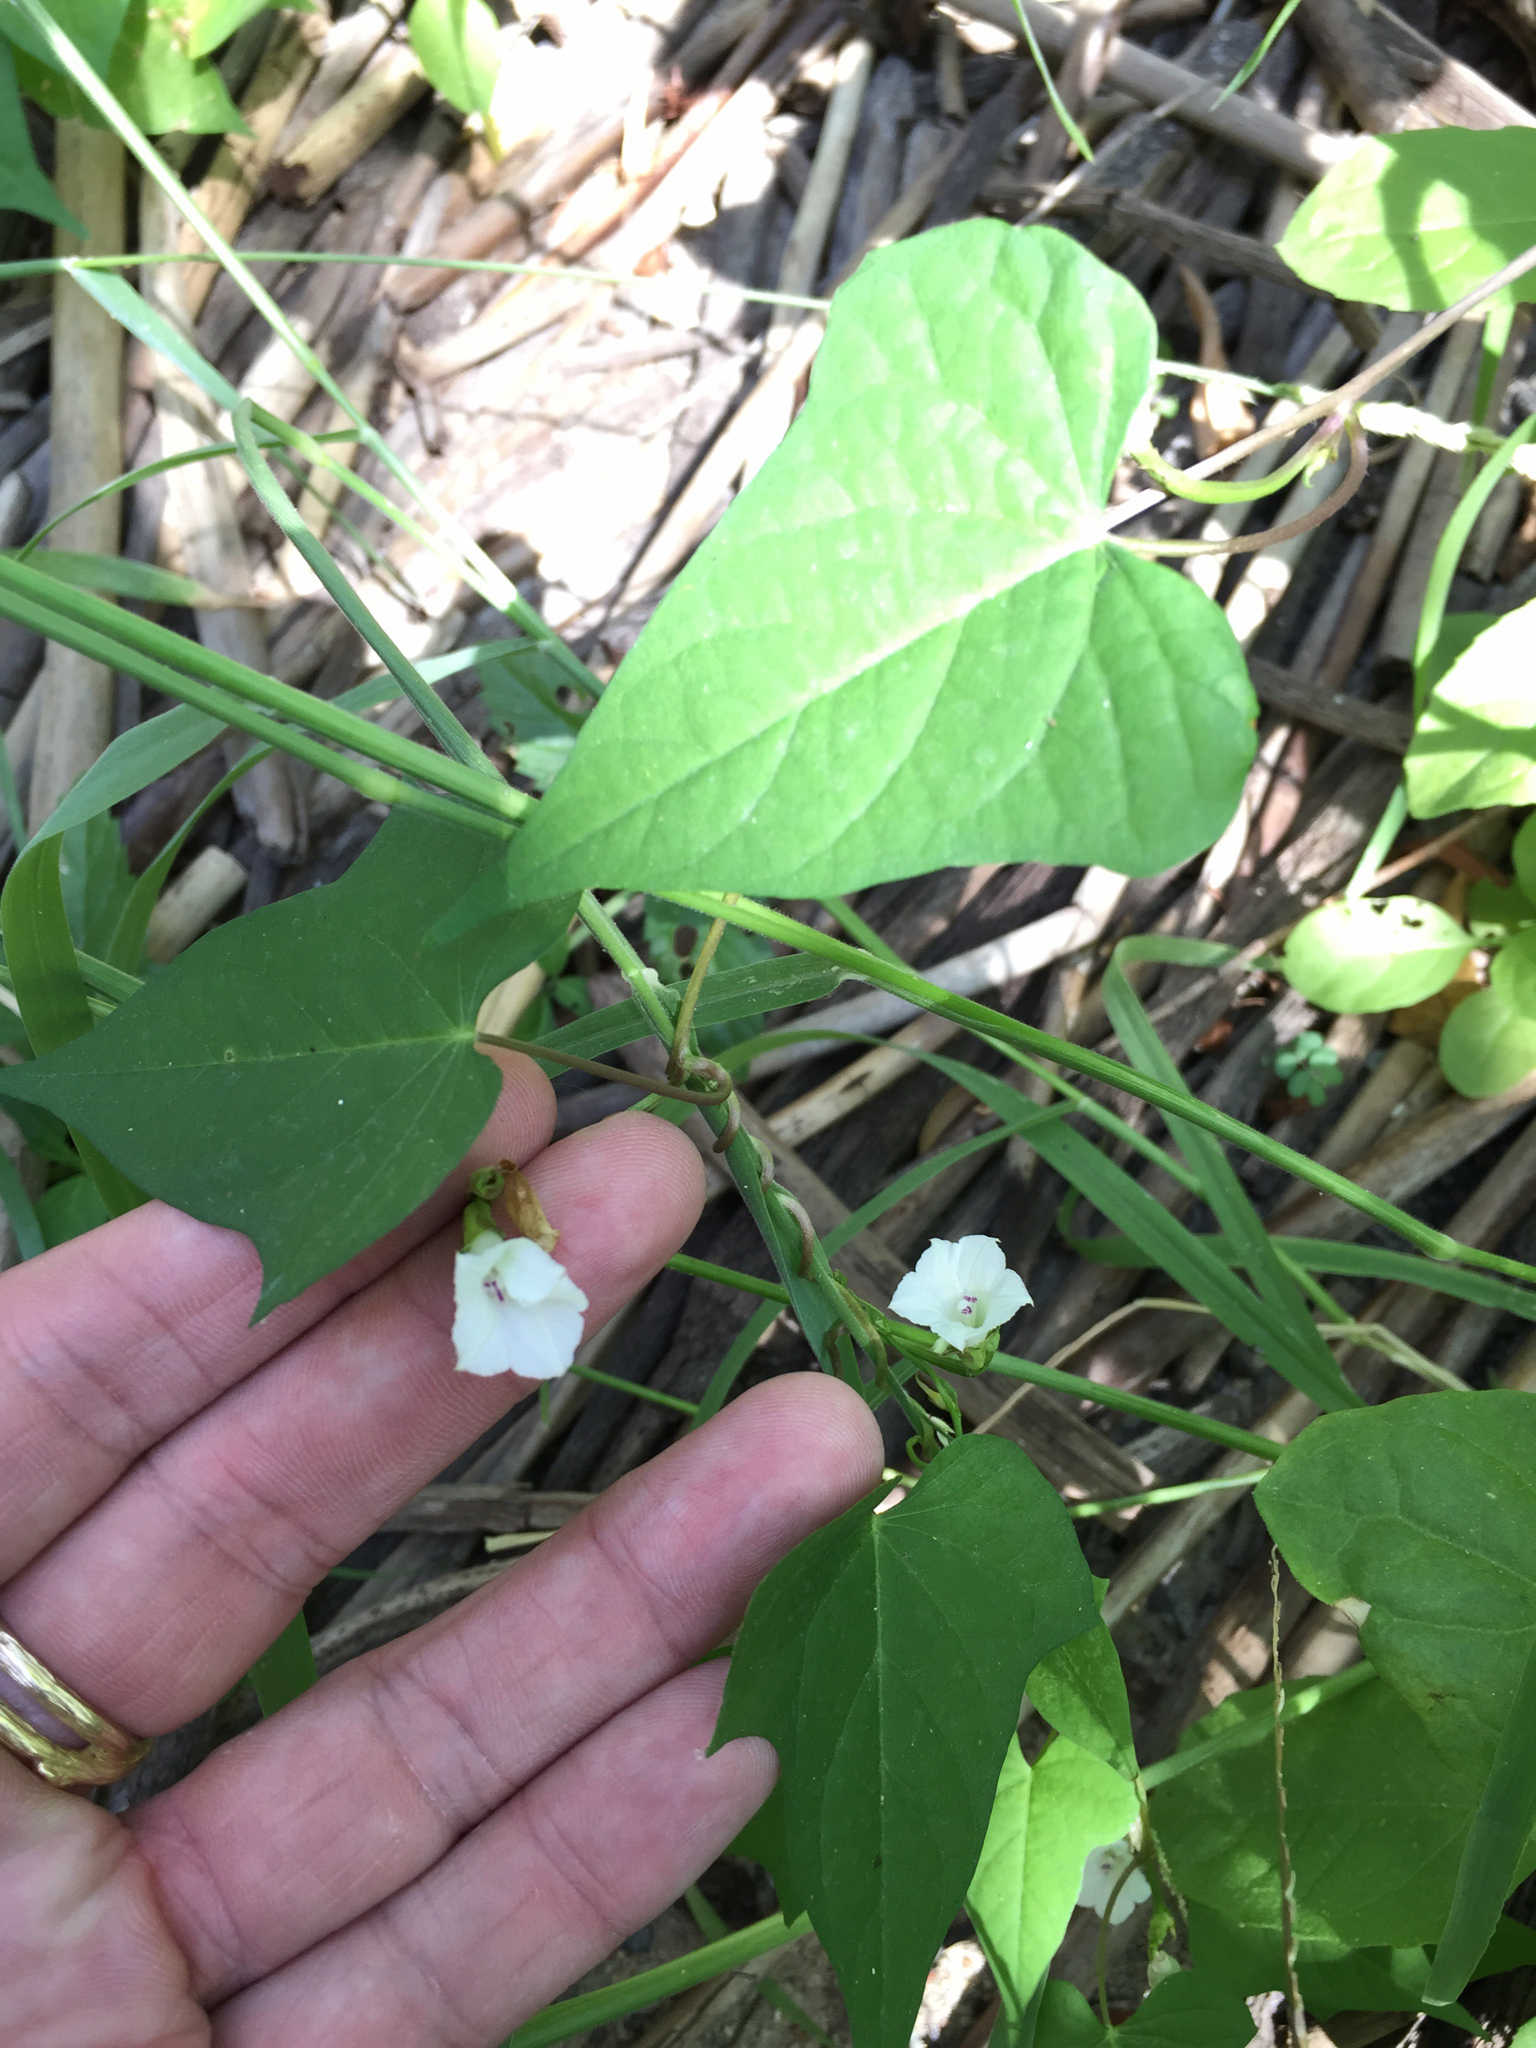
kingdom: Plantae
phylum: Tracheophyta
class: Magnoliopsida
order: Solanales
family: Convolvulaceae
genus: Ipomoea
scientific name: Ipomoea lacunosa
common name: White morning-glory
